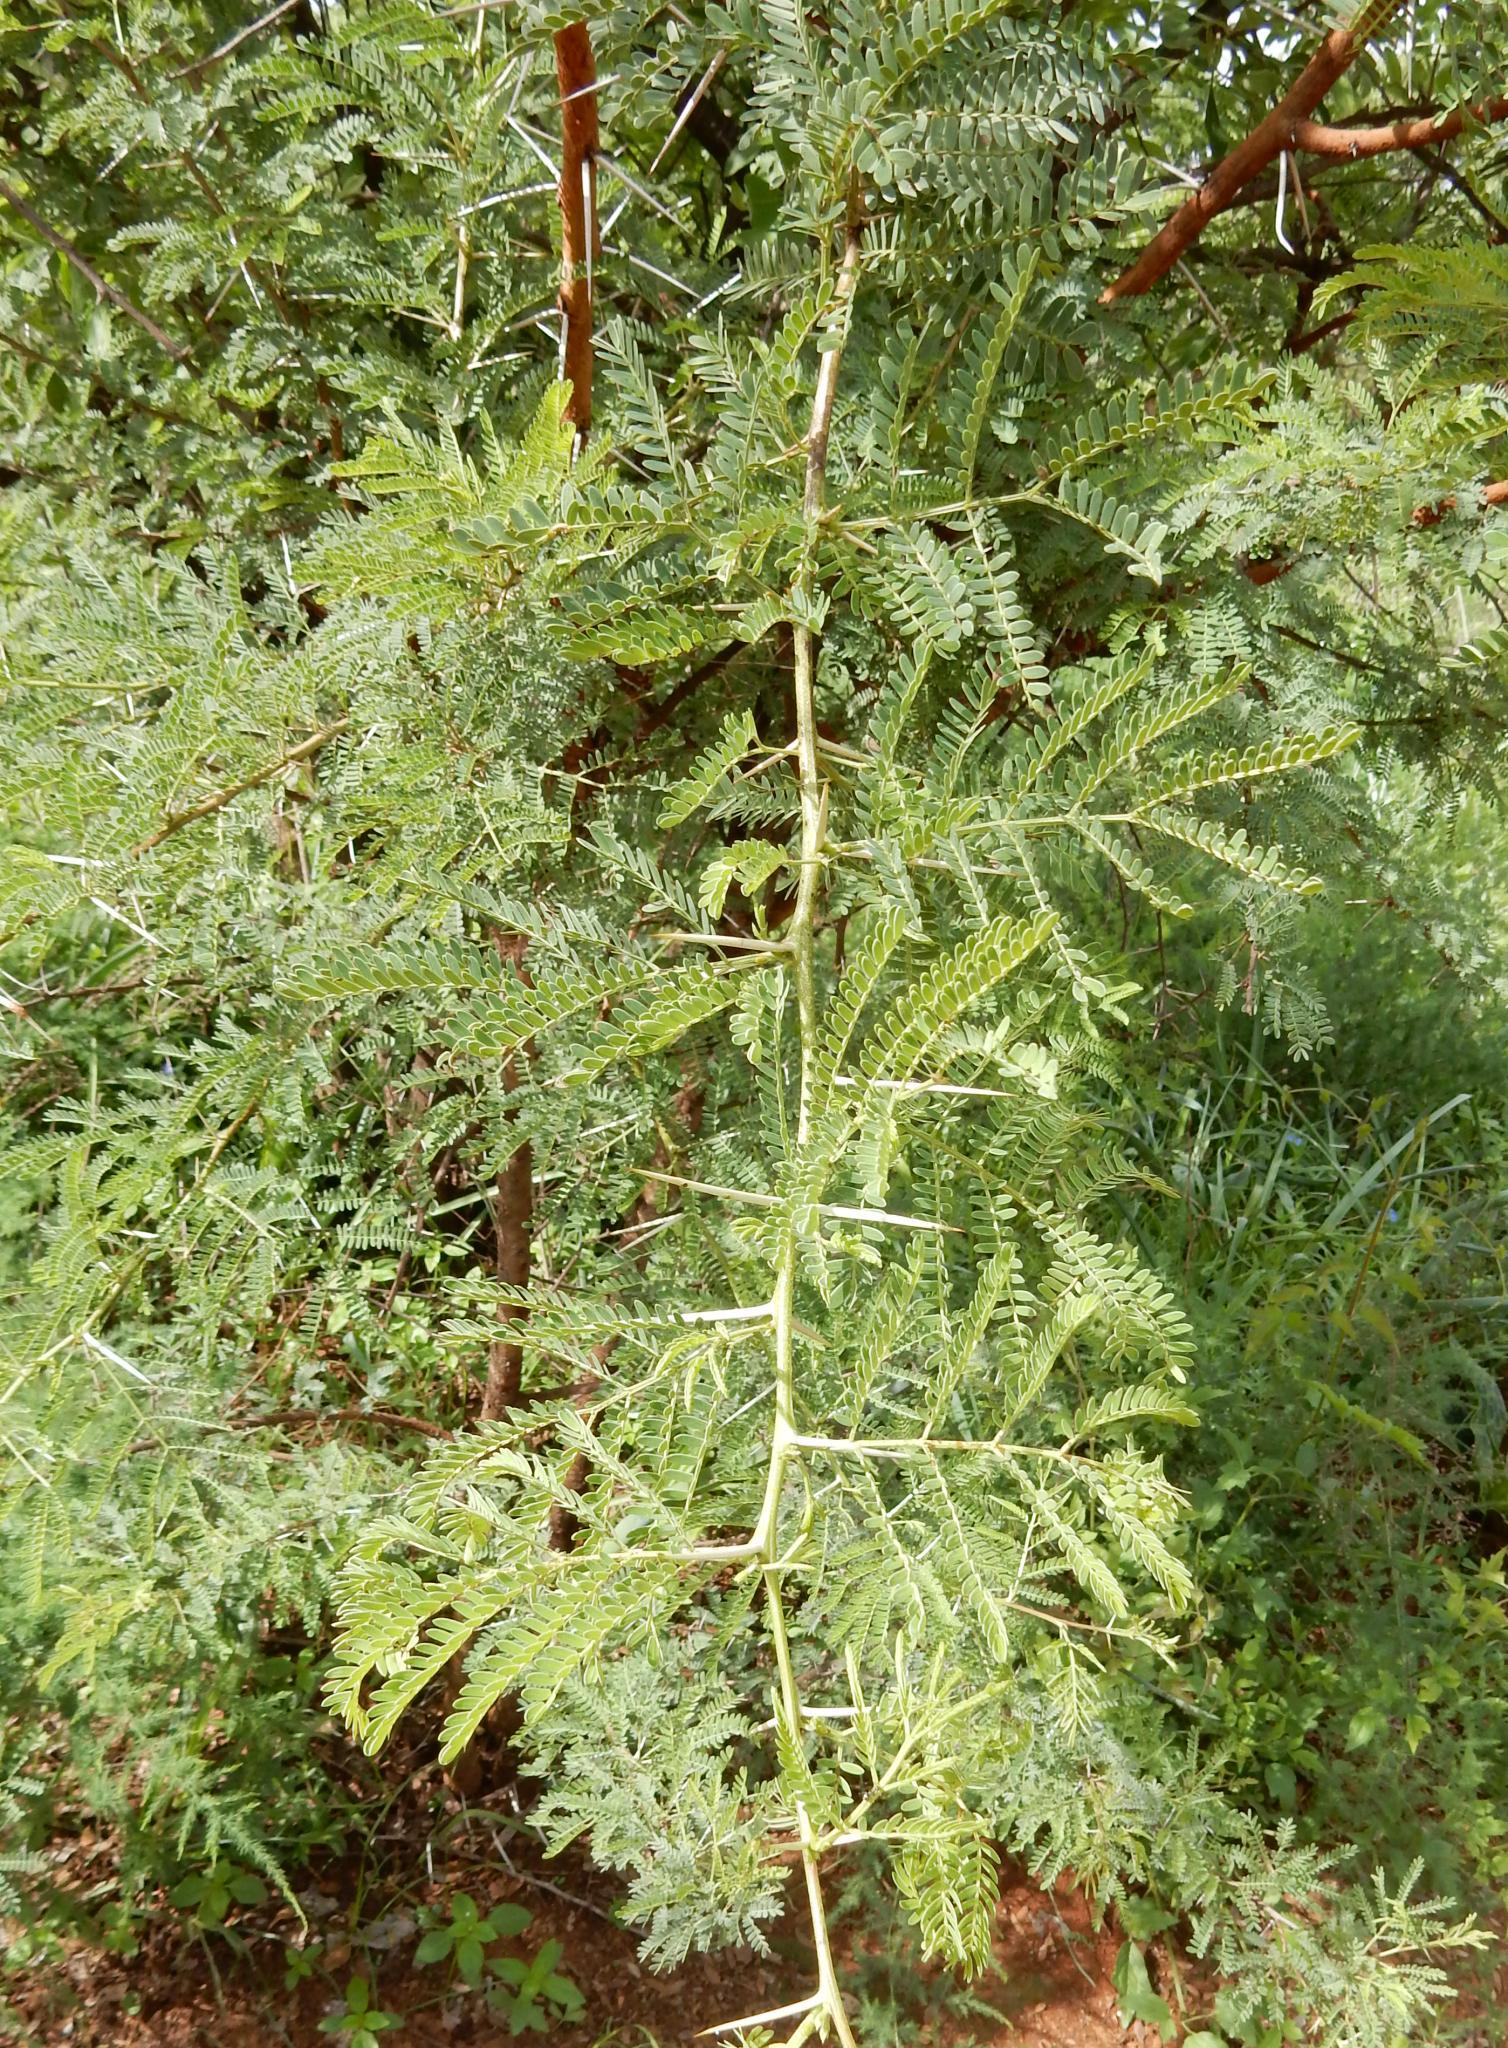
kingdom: Plantae
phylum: Tracheophyta
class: Magnoliopsida
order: Fabales
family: Fabaceae
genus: Vachellia
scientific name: Vachellia karroo
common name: Sweet thorn
